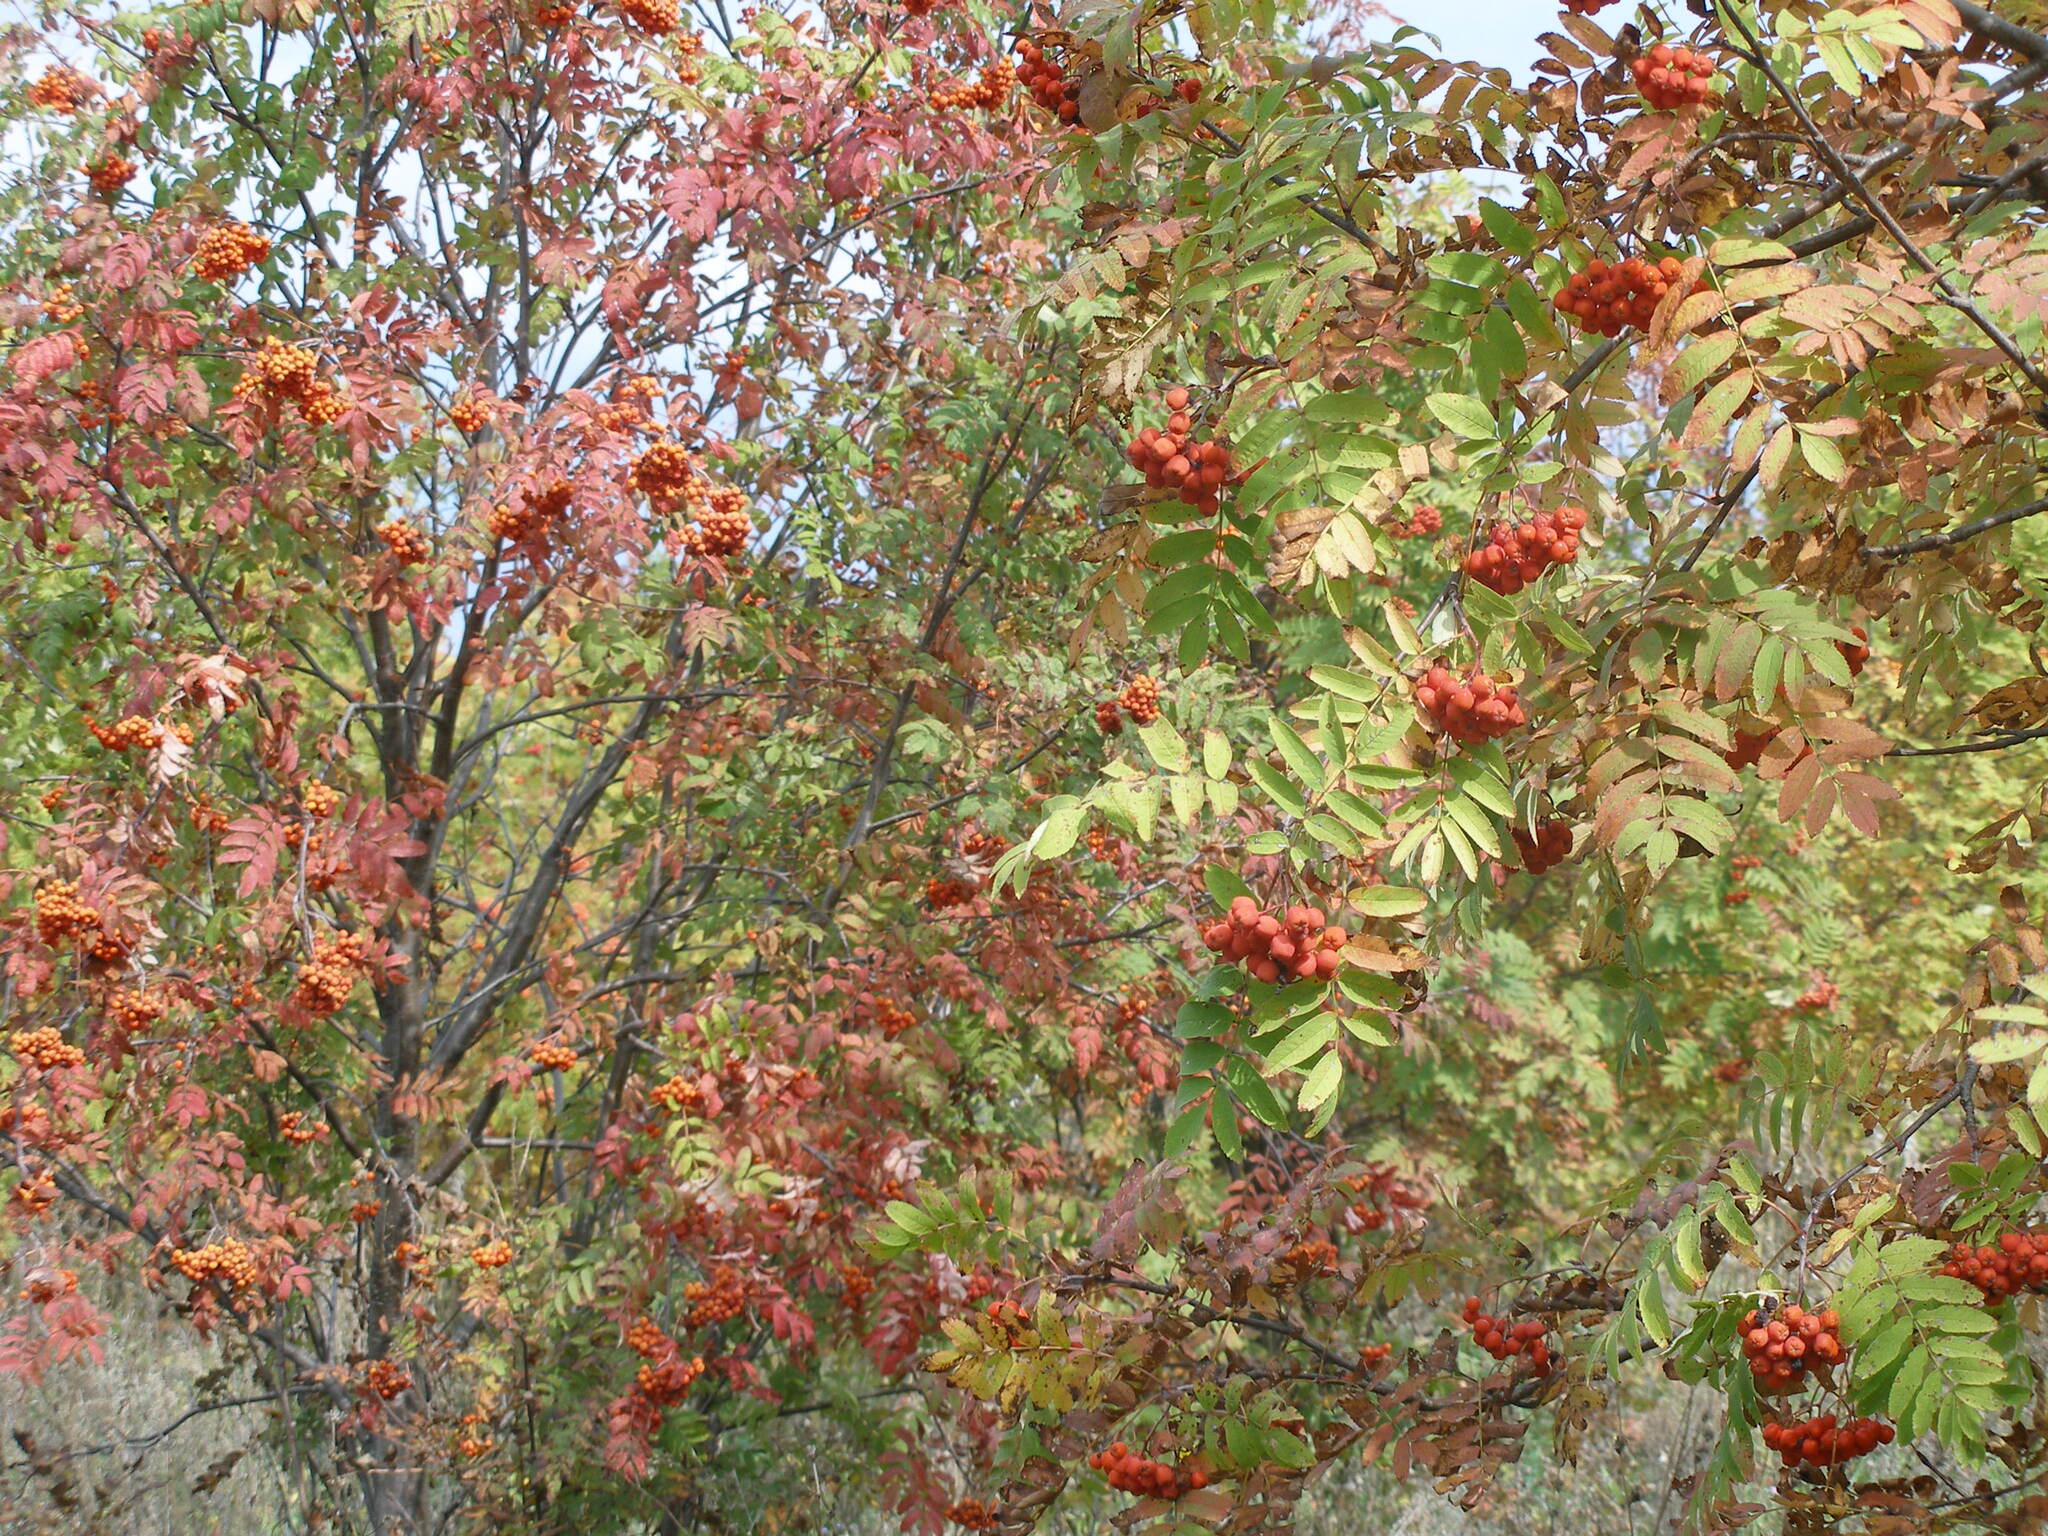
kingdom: Plantae
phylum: Tracheophyta
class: Magnoliopsida
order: Rosales
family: Rosaceae
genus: Sorbus
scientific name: Sorbus aucuparia
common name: Rowan
